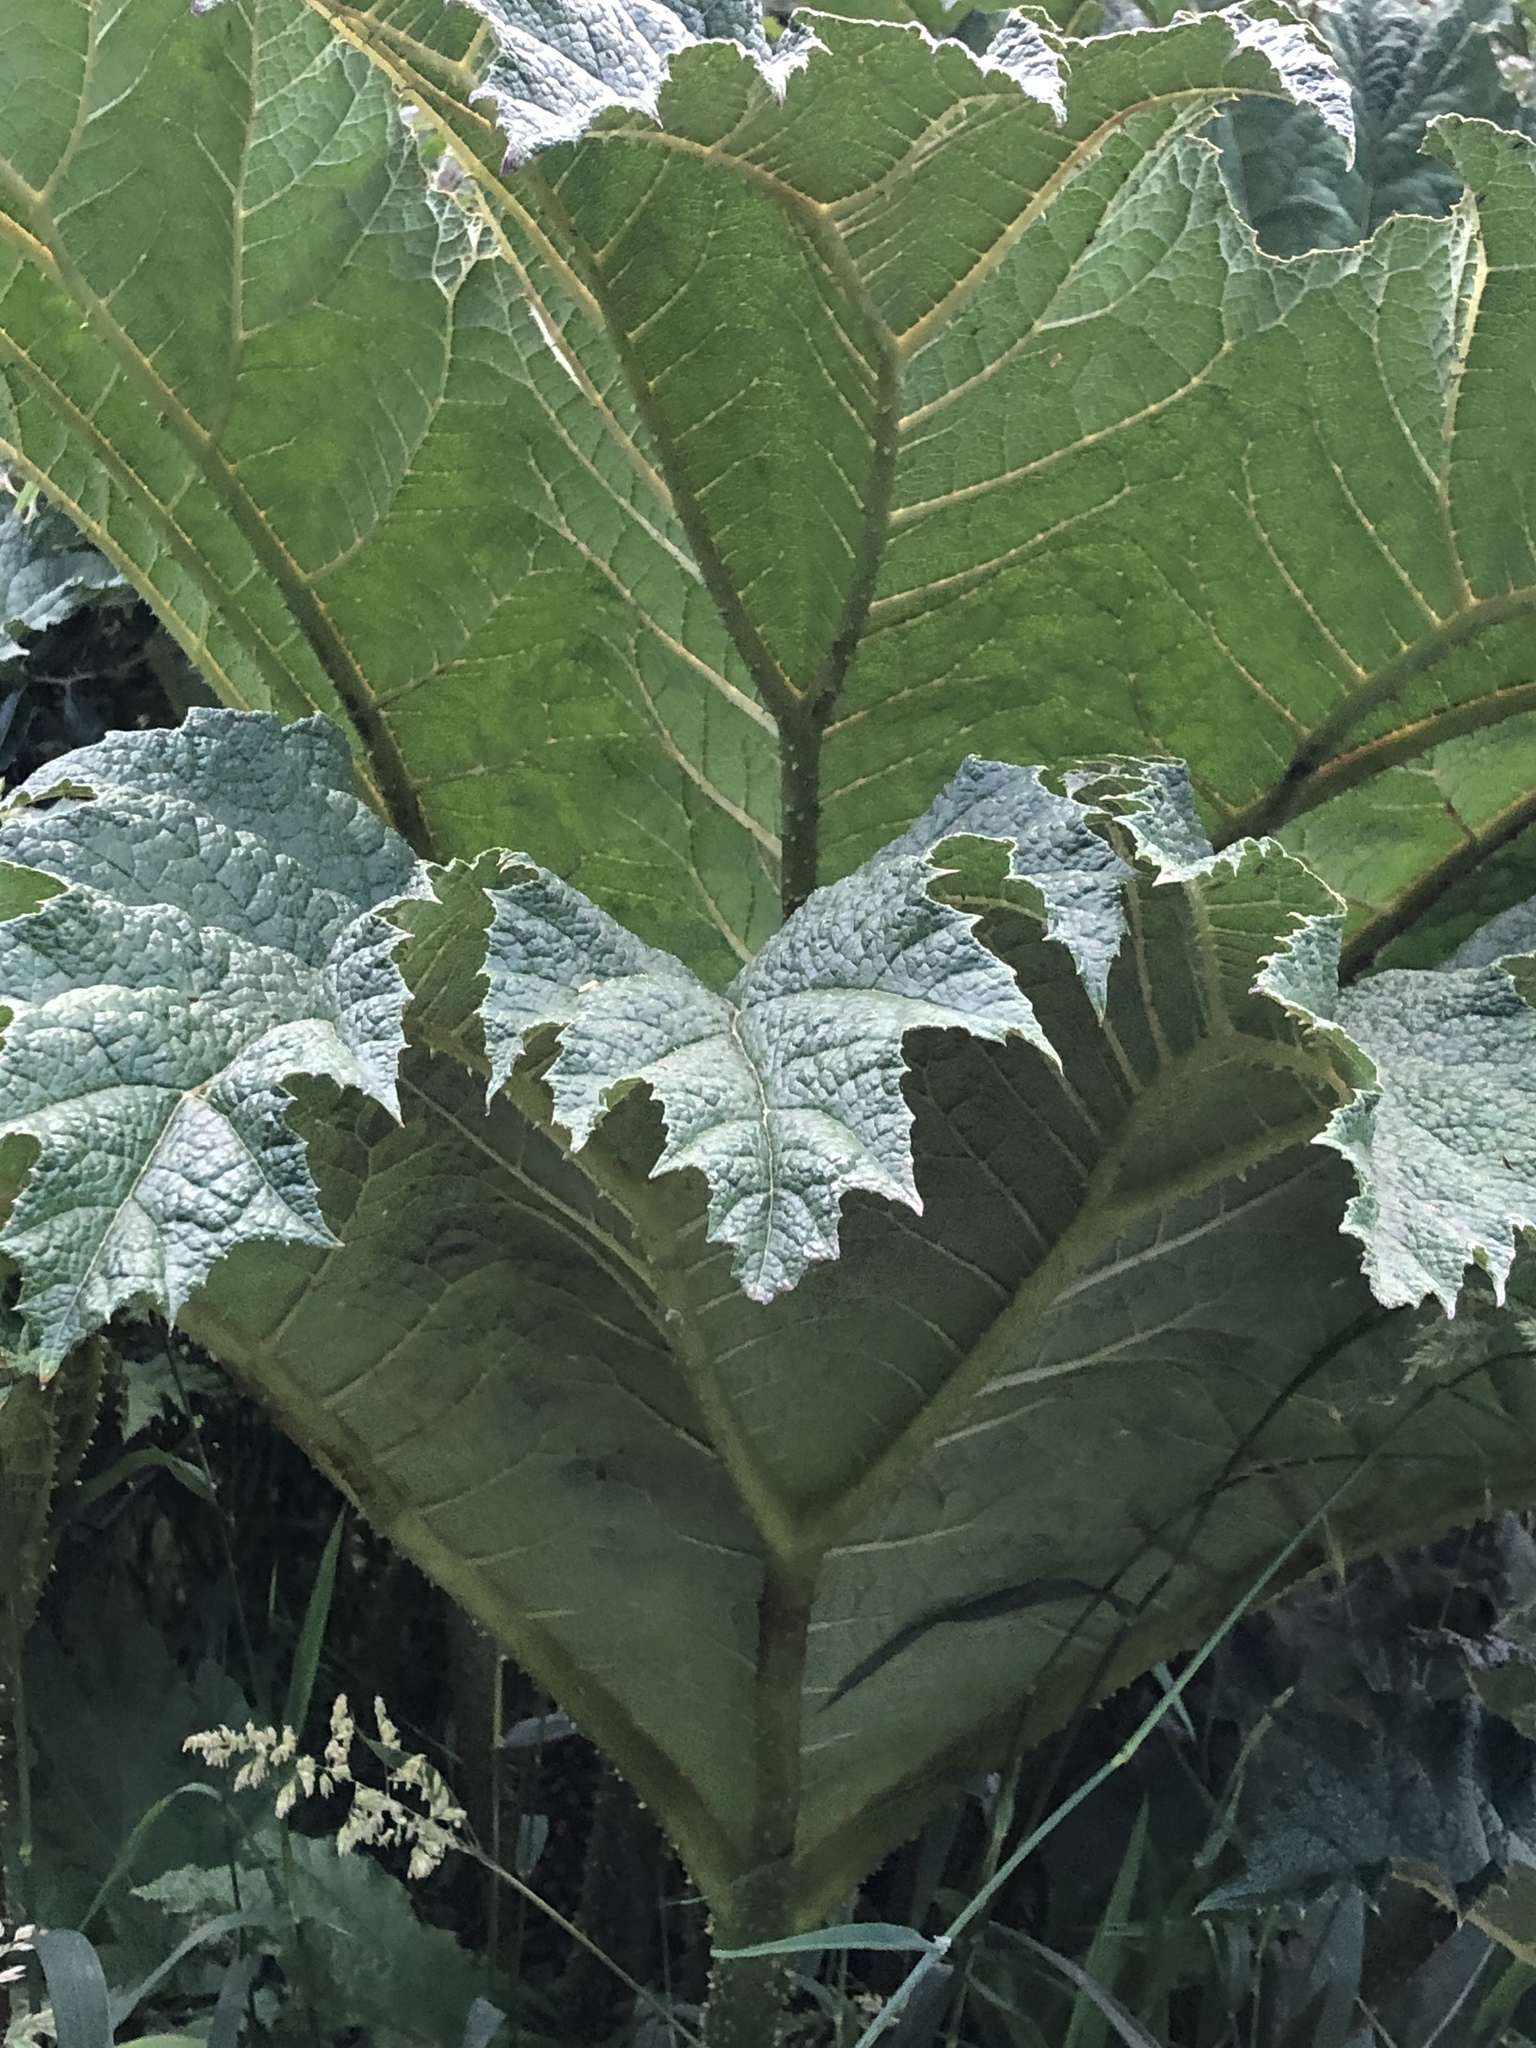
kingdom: Plantae
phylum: Tracheophyta
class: Magnoliopsida
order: Gunnerales
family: Gunneraceae
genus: Gunnera
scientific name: Gunnera tinctoria
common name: Giant-rhubarb
